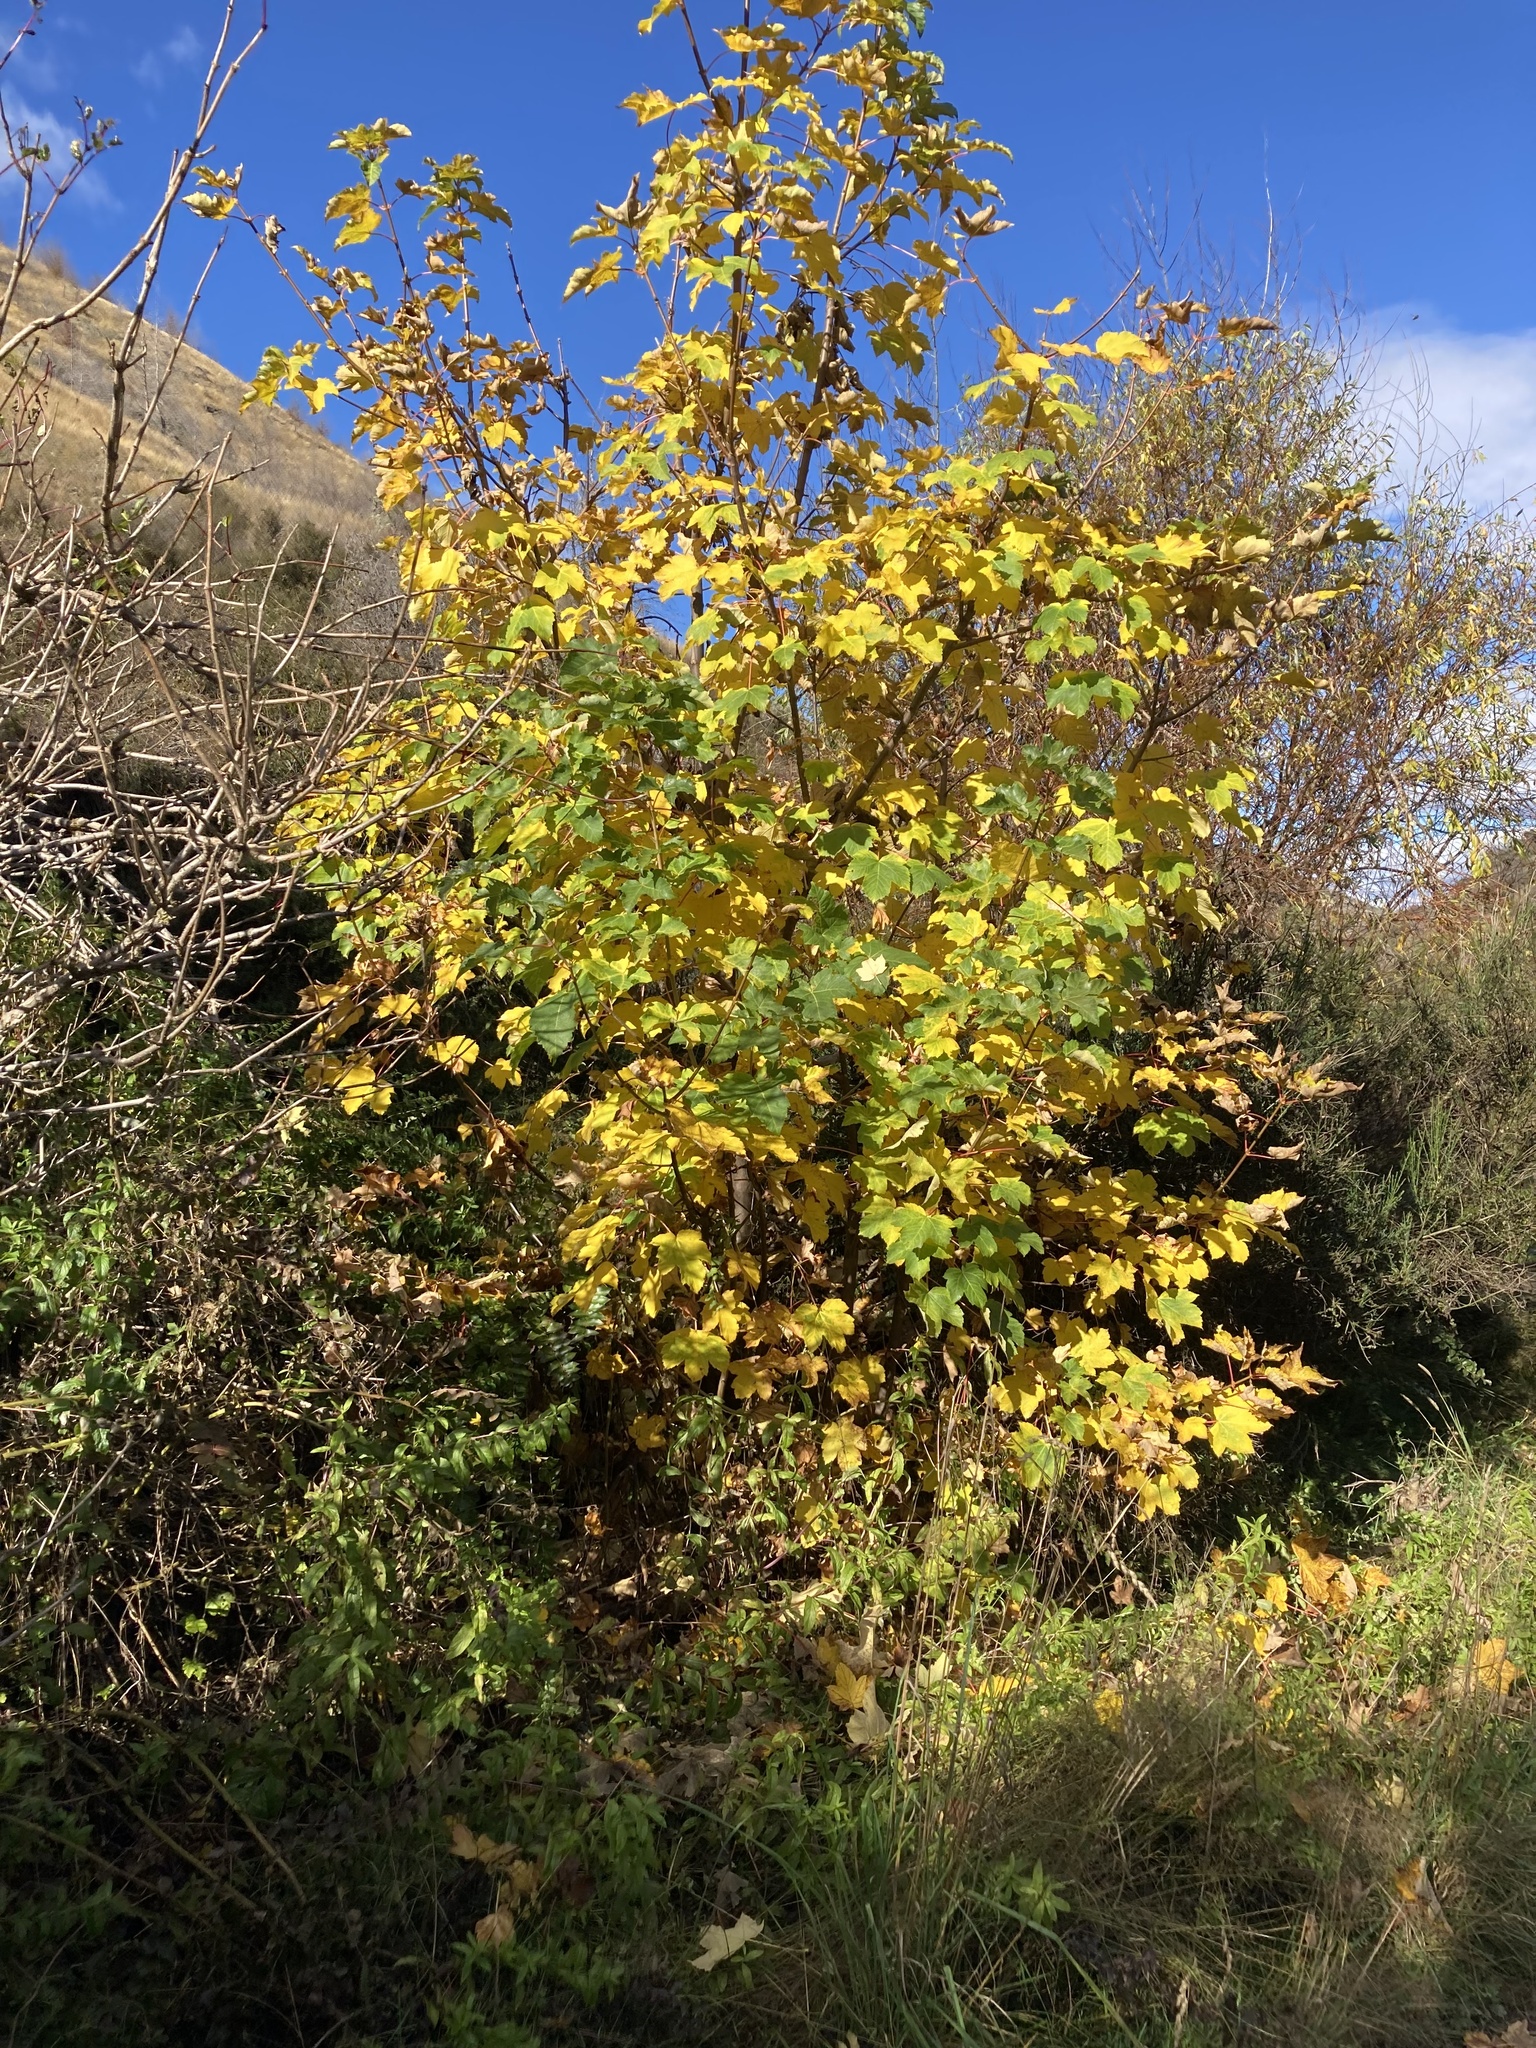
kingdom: Plantae
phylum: Tracheophyta
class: Magnoliopsida
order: Sapindales
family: Sapindaceae
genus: Acer
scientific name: Acer pseudoplatanus
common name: Sycamore
